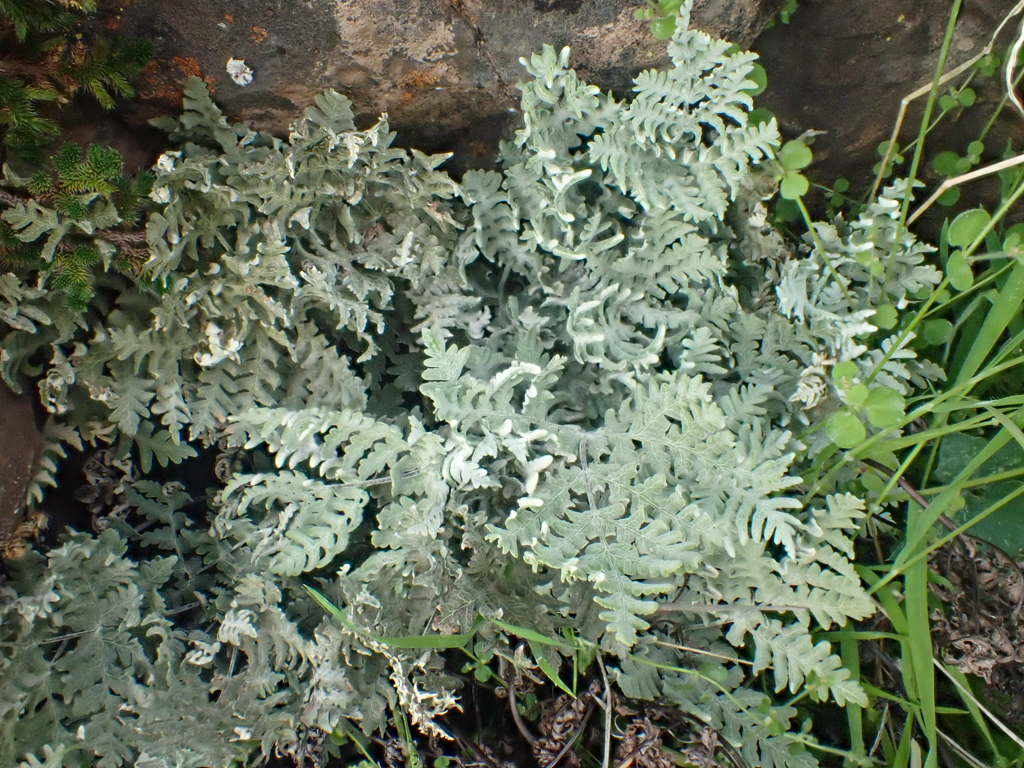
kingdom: Plantae
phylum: Tracheophyta
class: Polypodiopsida
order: Polypodiales
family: Pteridaceae
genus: Pentagramma
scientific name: Pentagramma pallida
